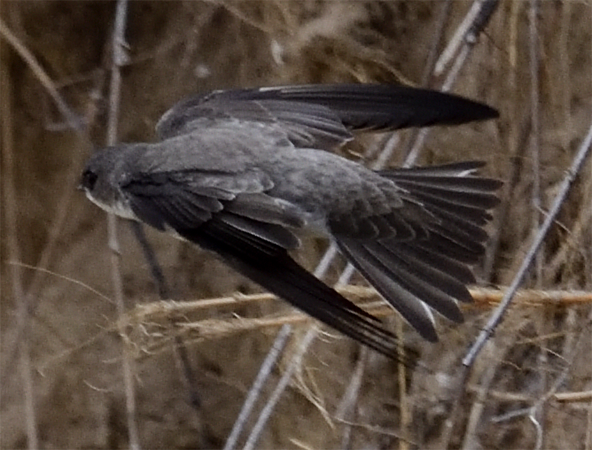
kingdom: Animalia
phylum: Chordata
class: Aves
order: Passeriformes
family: Hirundinidae
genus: Riparia
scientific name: Riparia riparia
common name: Sand martin
